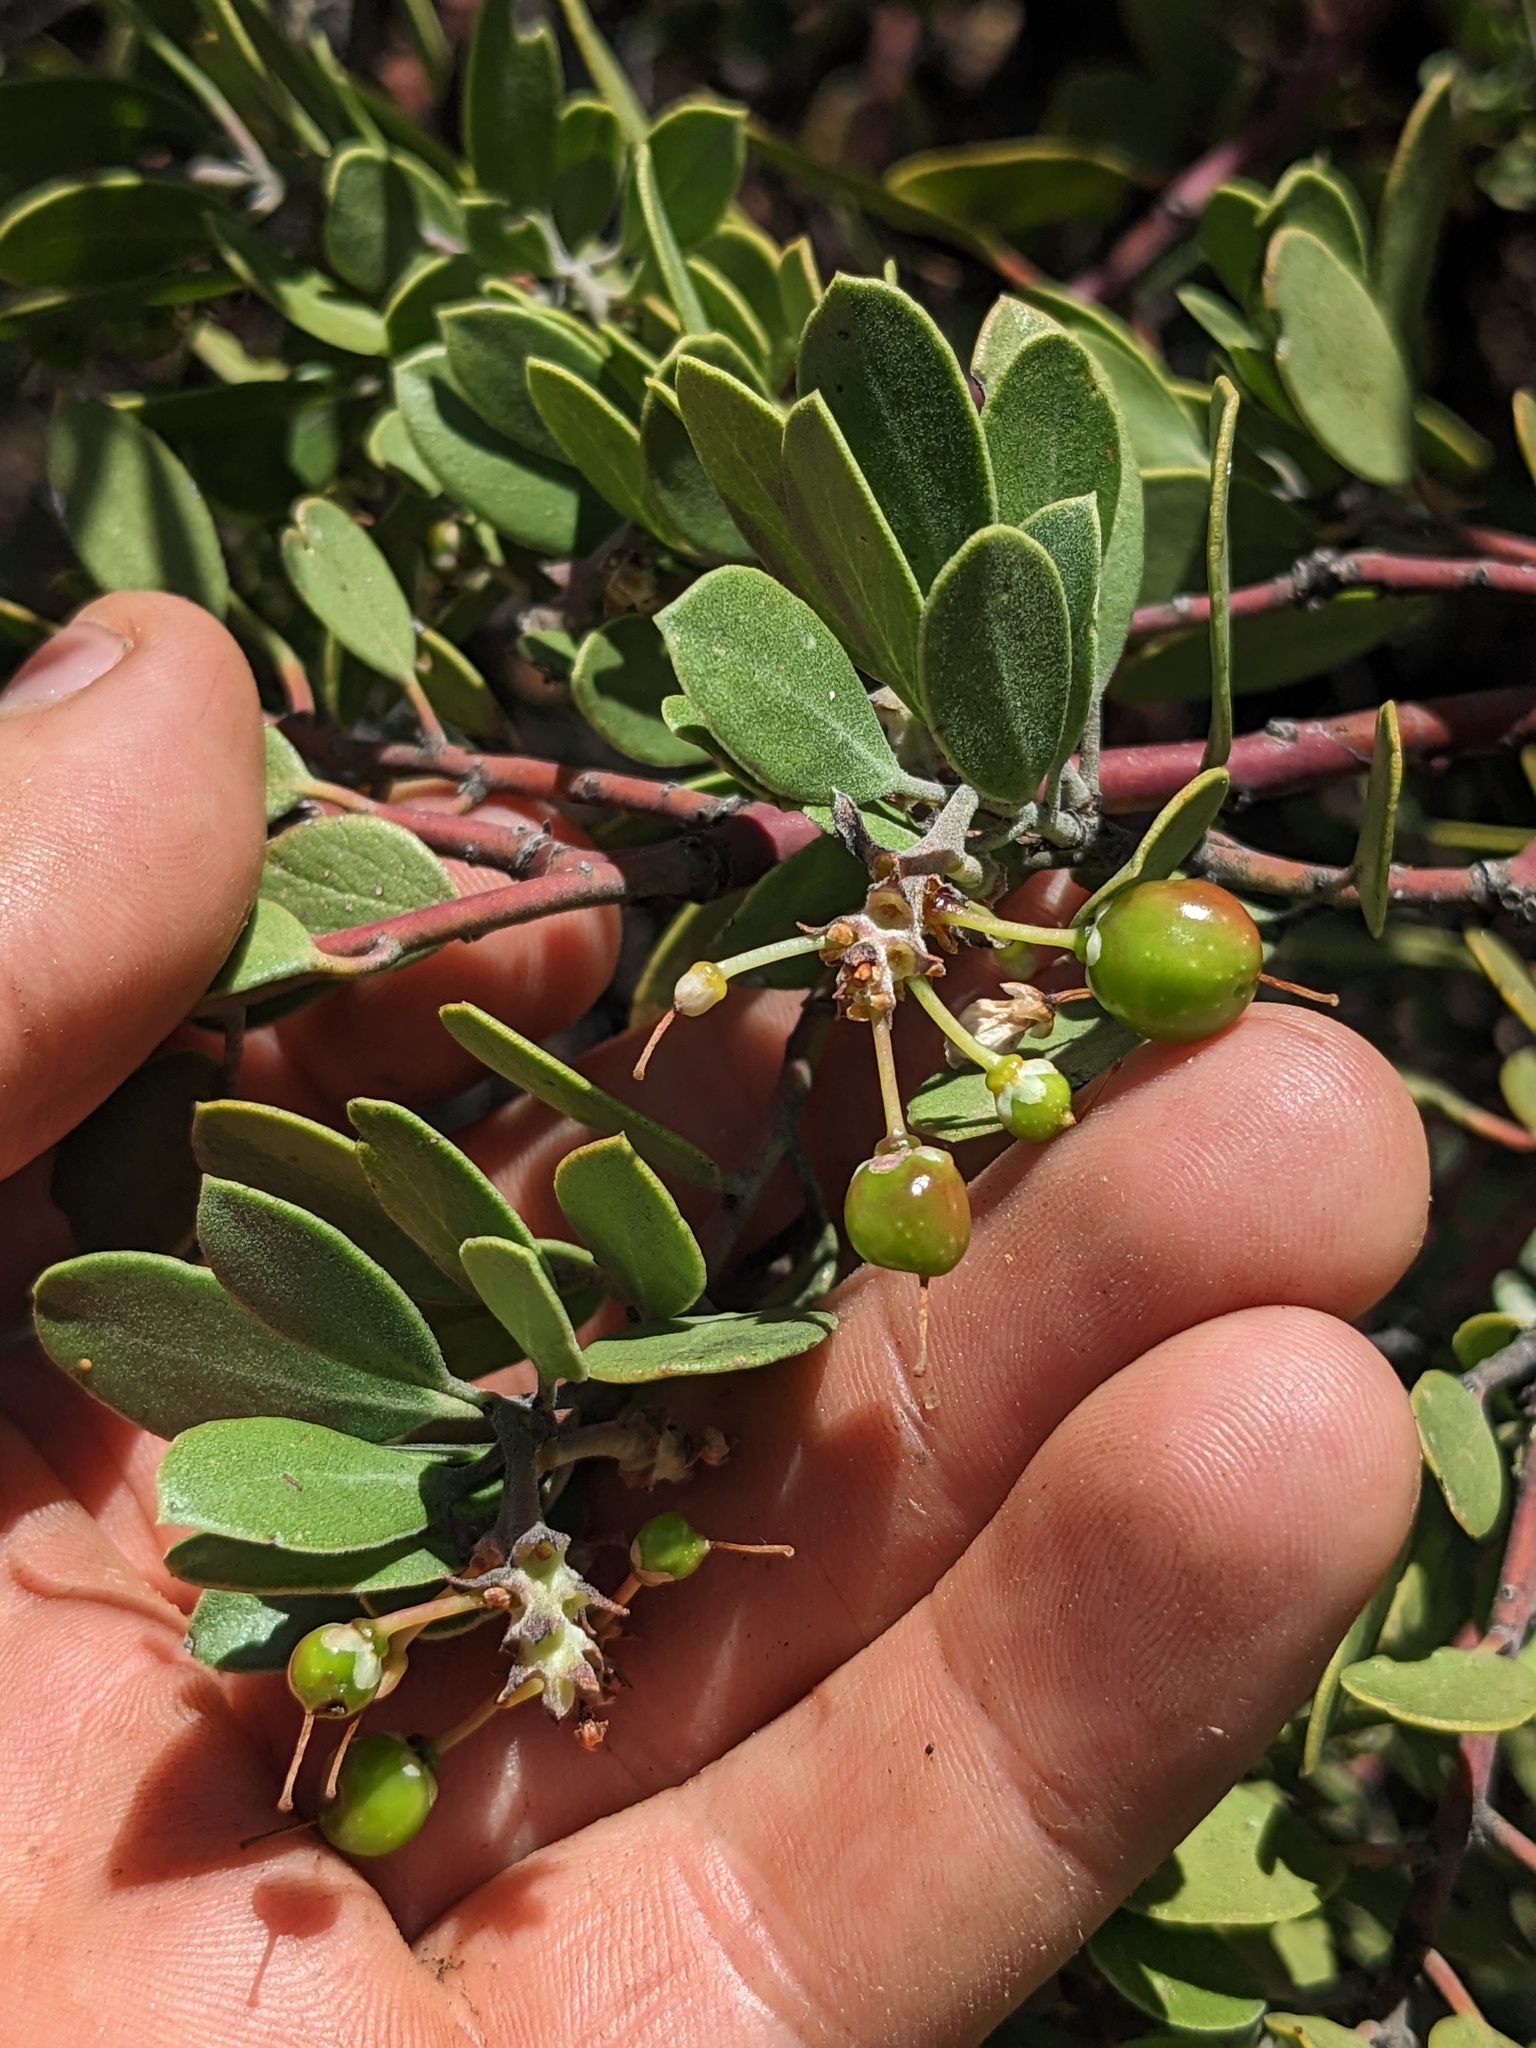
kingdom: Plantae
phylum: Tracheophyta
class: Magnoliopsida
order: Ericales
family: Ericaceae
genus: Arctostaphylos
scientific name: Arctostaphylos benitoensis
